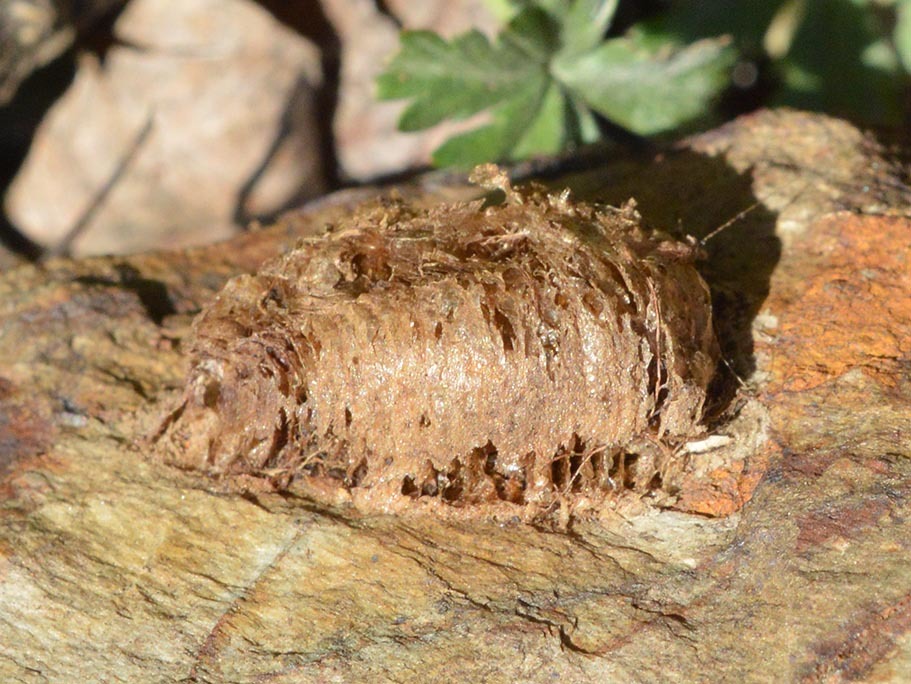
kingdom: Animalia
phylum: Arthropoda
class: Insecta
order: Mantodea
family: Mantidae
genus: Mantis
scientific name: Mantis religiosa
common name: Praying mantis
